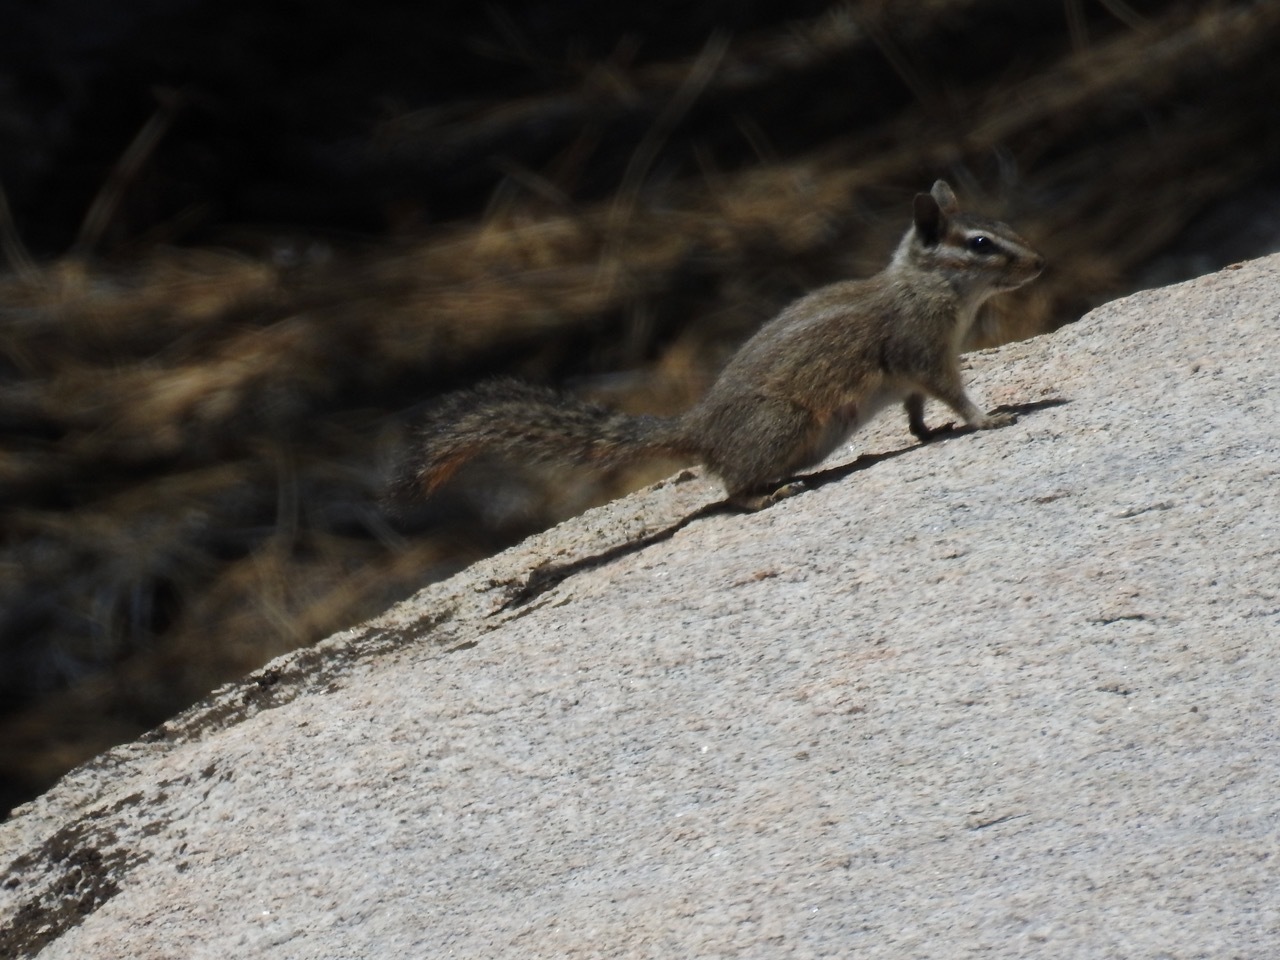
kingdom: Animalia
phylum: Chordata
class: Mammalia
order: Rodentia
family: Sciuridae
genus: Tamias
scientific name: Tamias obscurus
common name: California chipmunk
